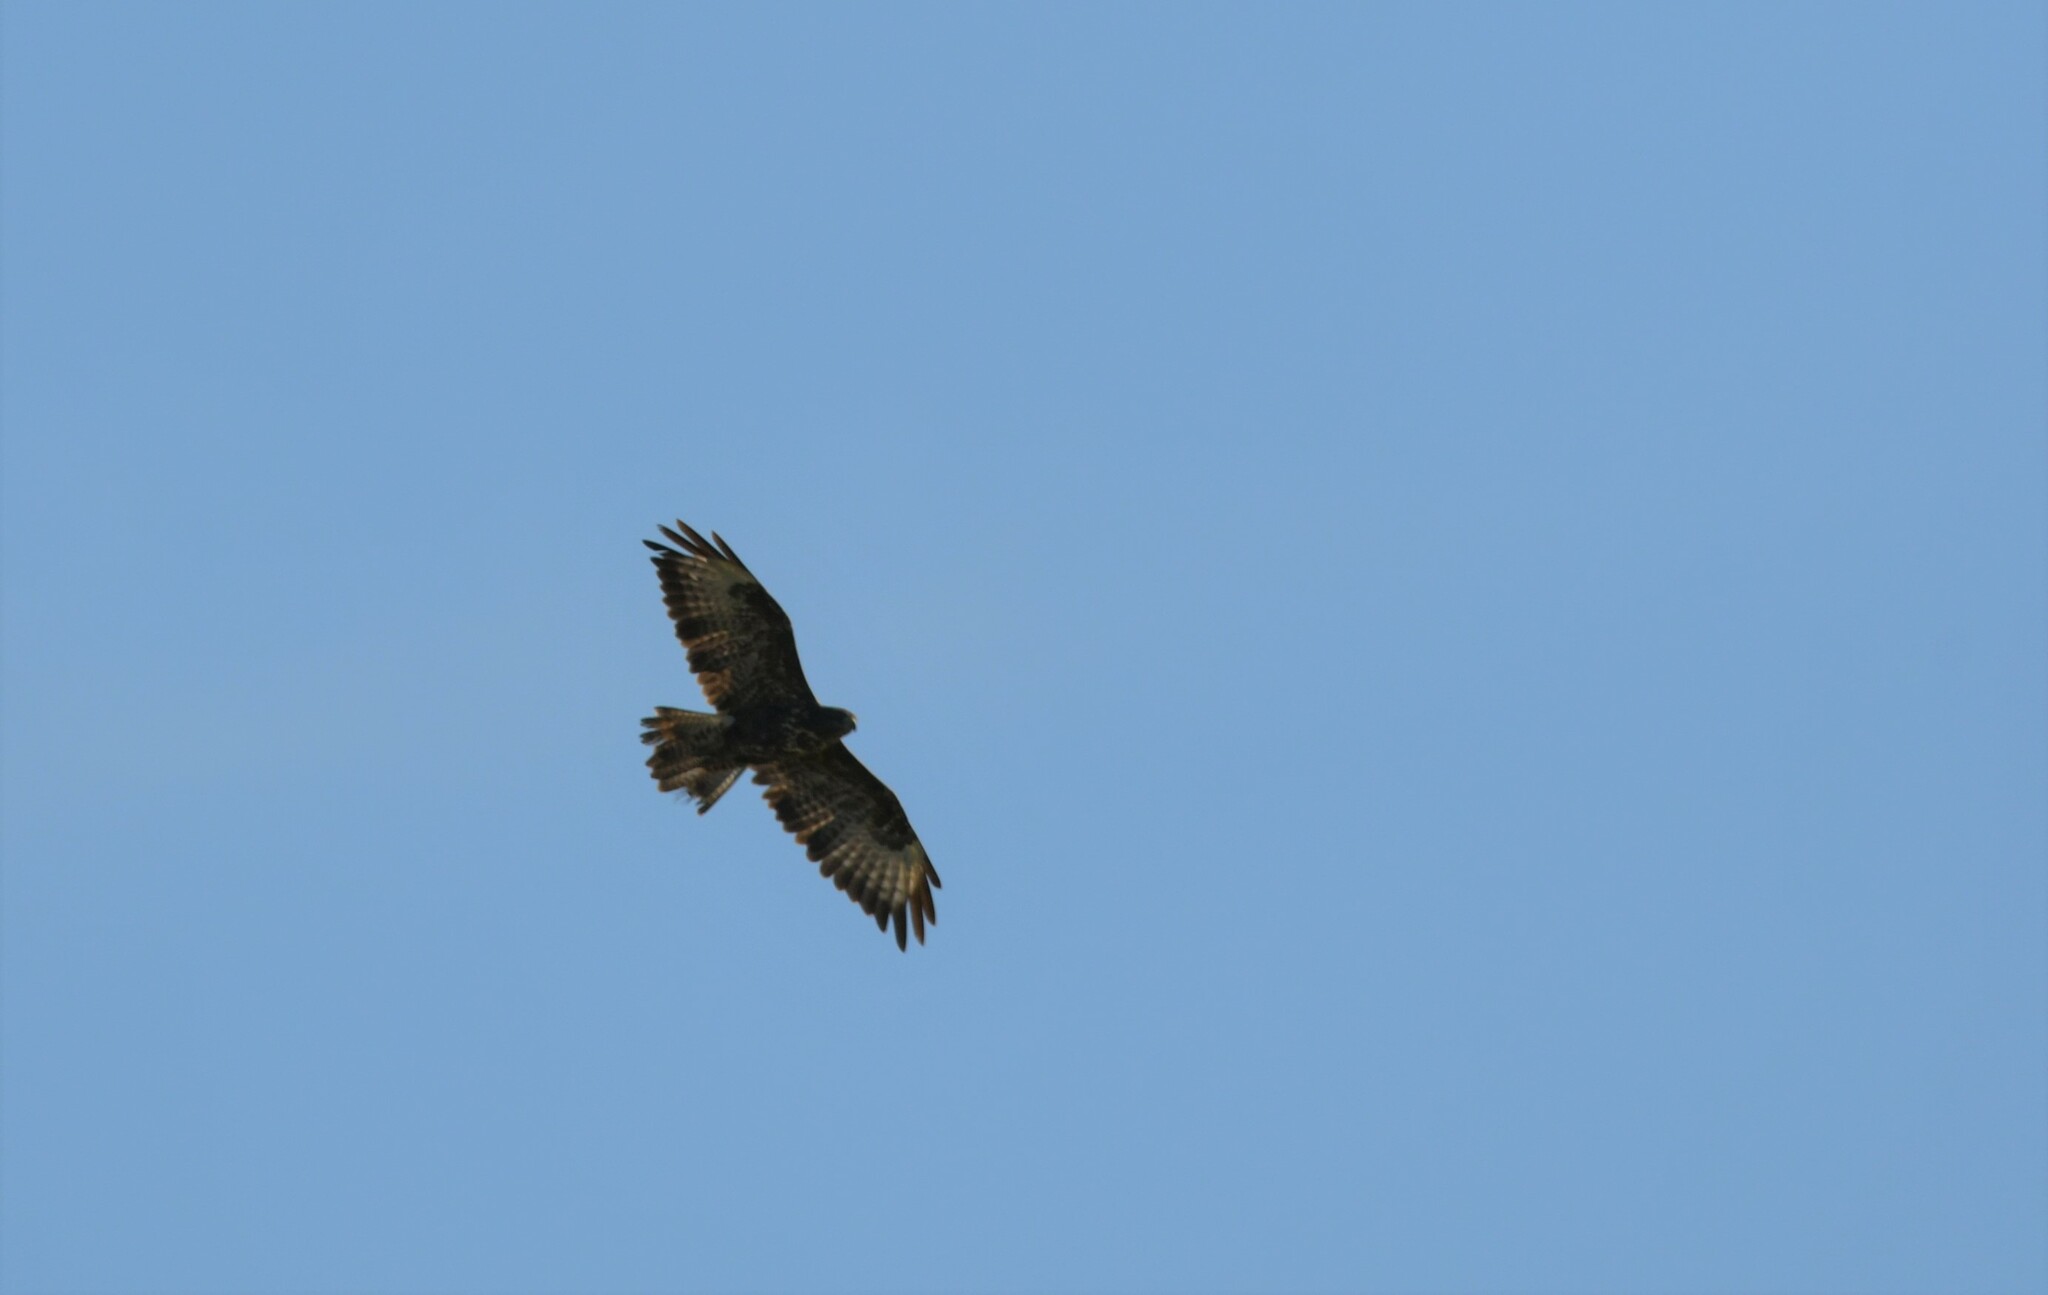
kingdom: Animalia
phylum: Chordata
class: Aves
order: Accipitriformes
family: Accipitridae
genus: Buteo
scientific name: Buteo buteo
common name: Common buzzard
